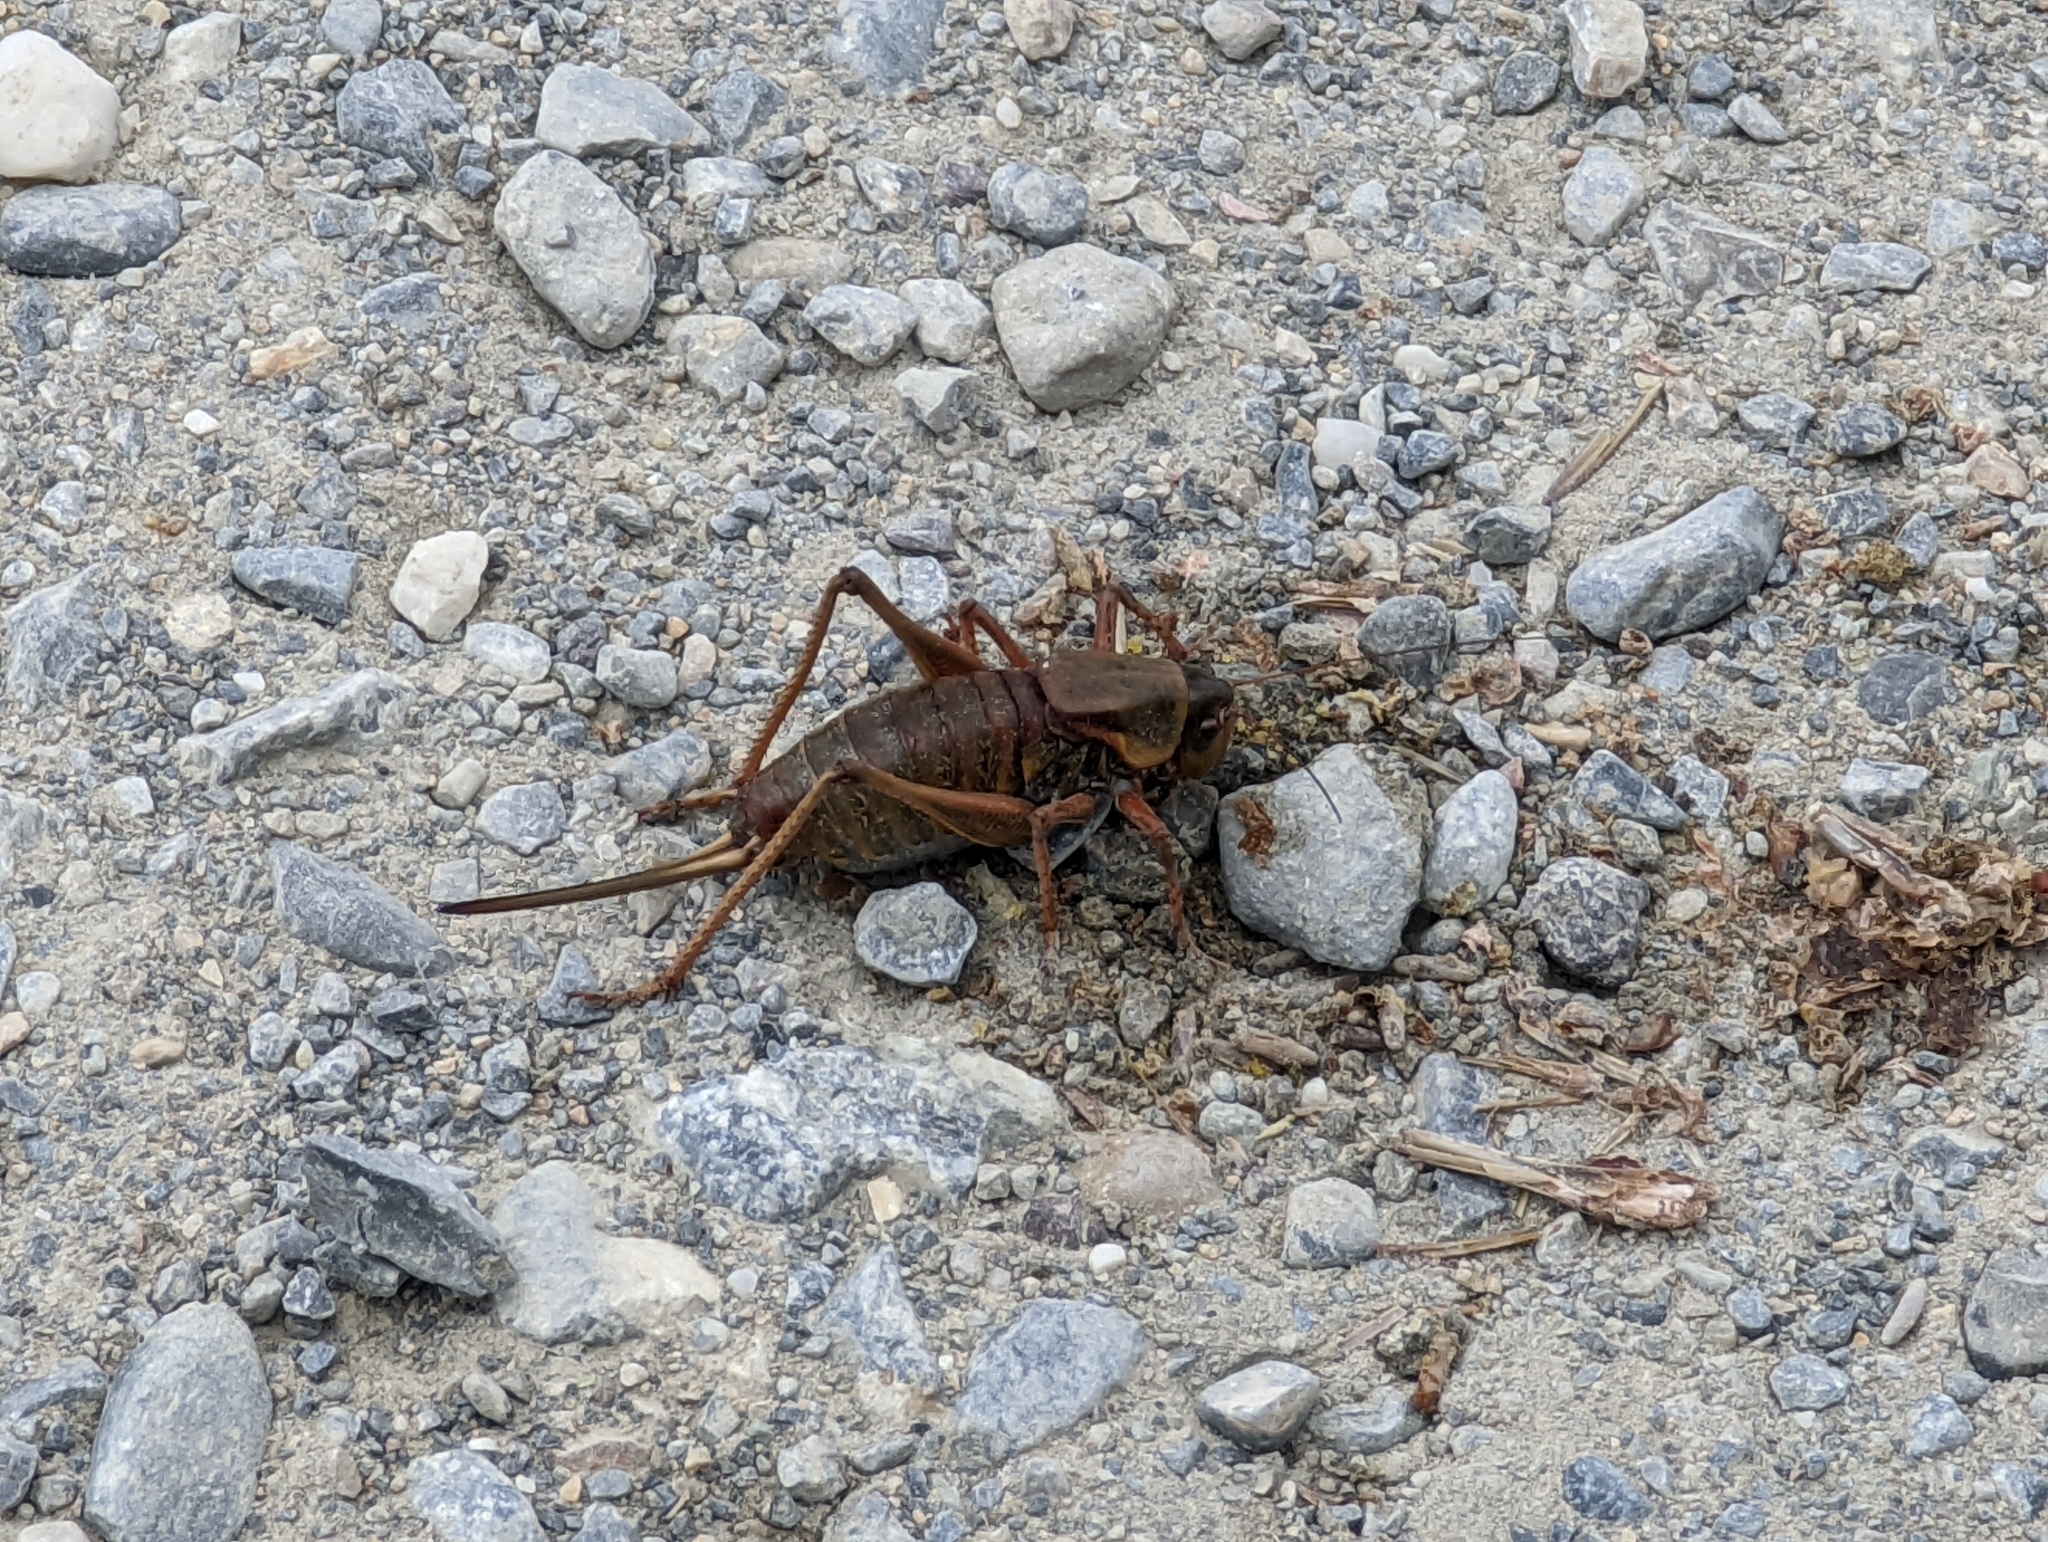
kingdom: Animalia
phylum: Arthropoda
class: Insecta
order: Orthoptera
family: Tettigoniidae
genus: Anabrus
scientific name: Anabrus simplex
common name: Mormon cricket
